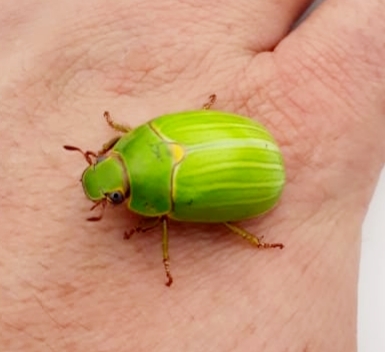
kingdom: Animalia
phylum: Arthropoda
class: Insecta
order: Coleoptera
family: Scarabaeidae
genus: Platycoelia
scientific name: Platycoelia humeralis
